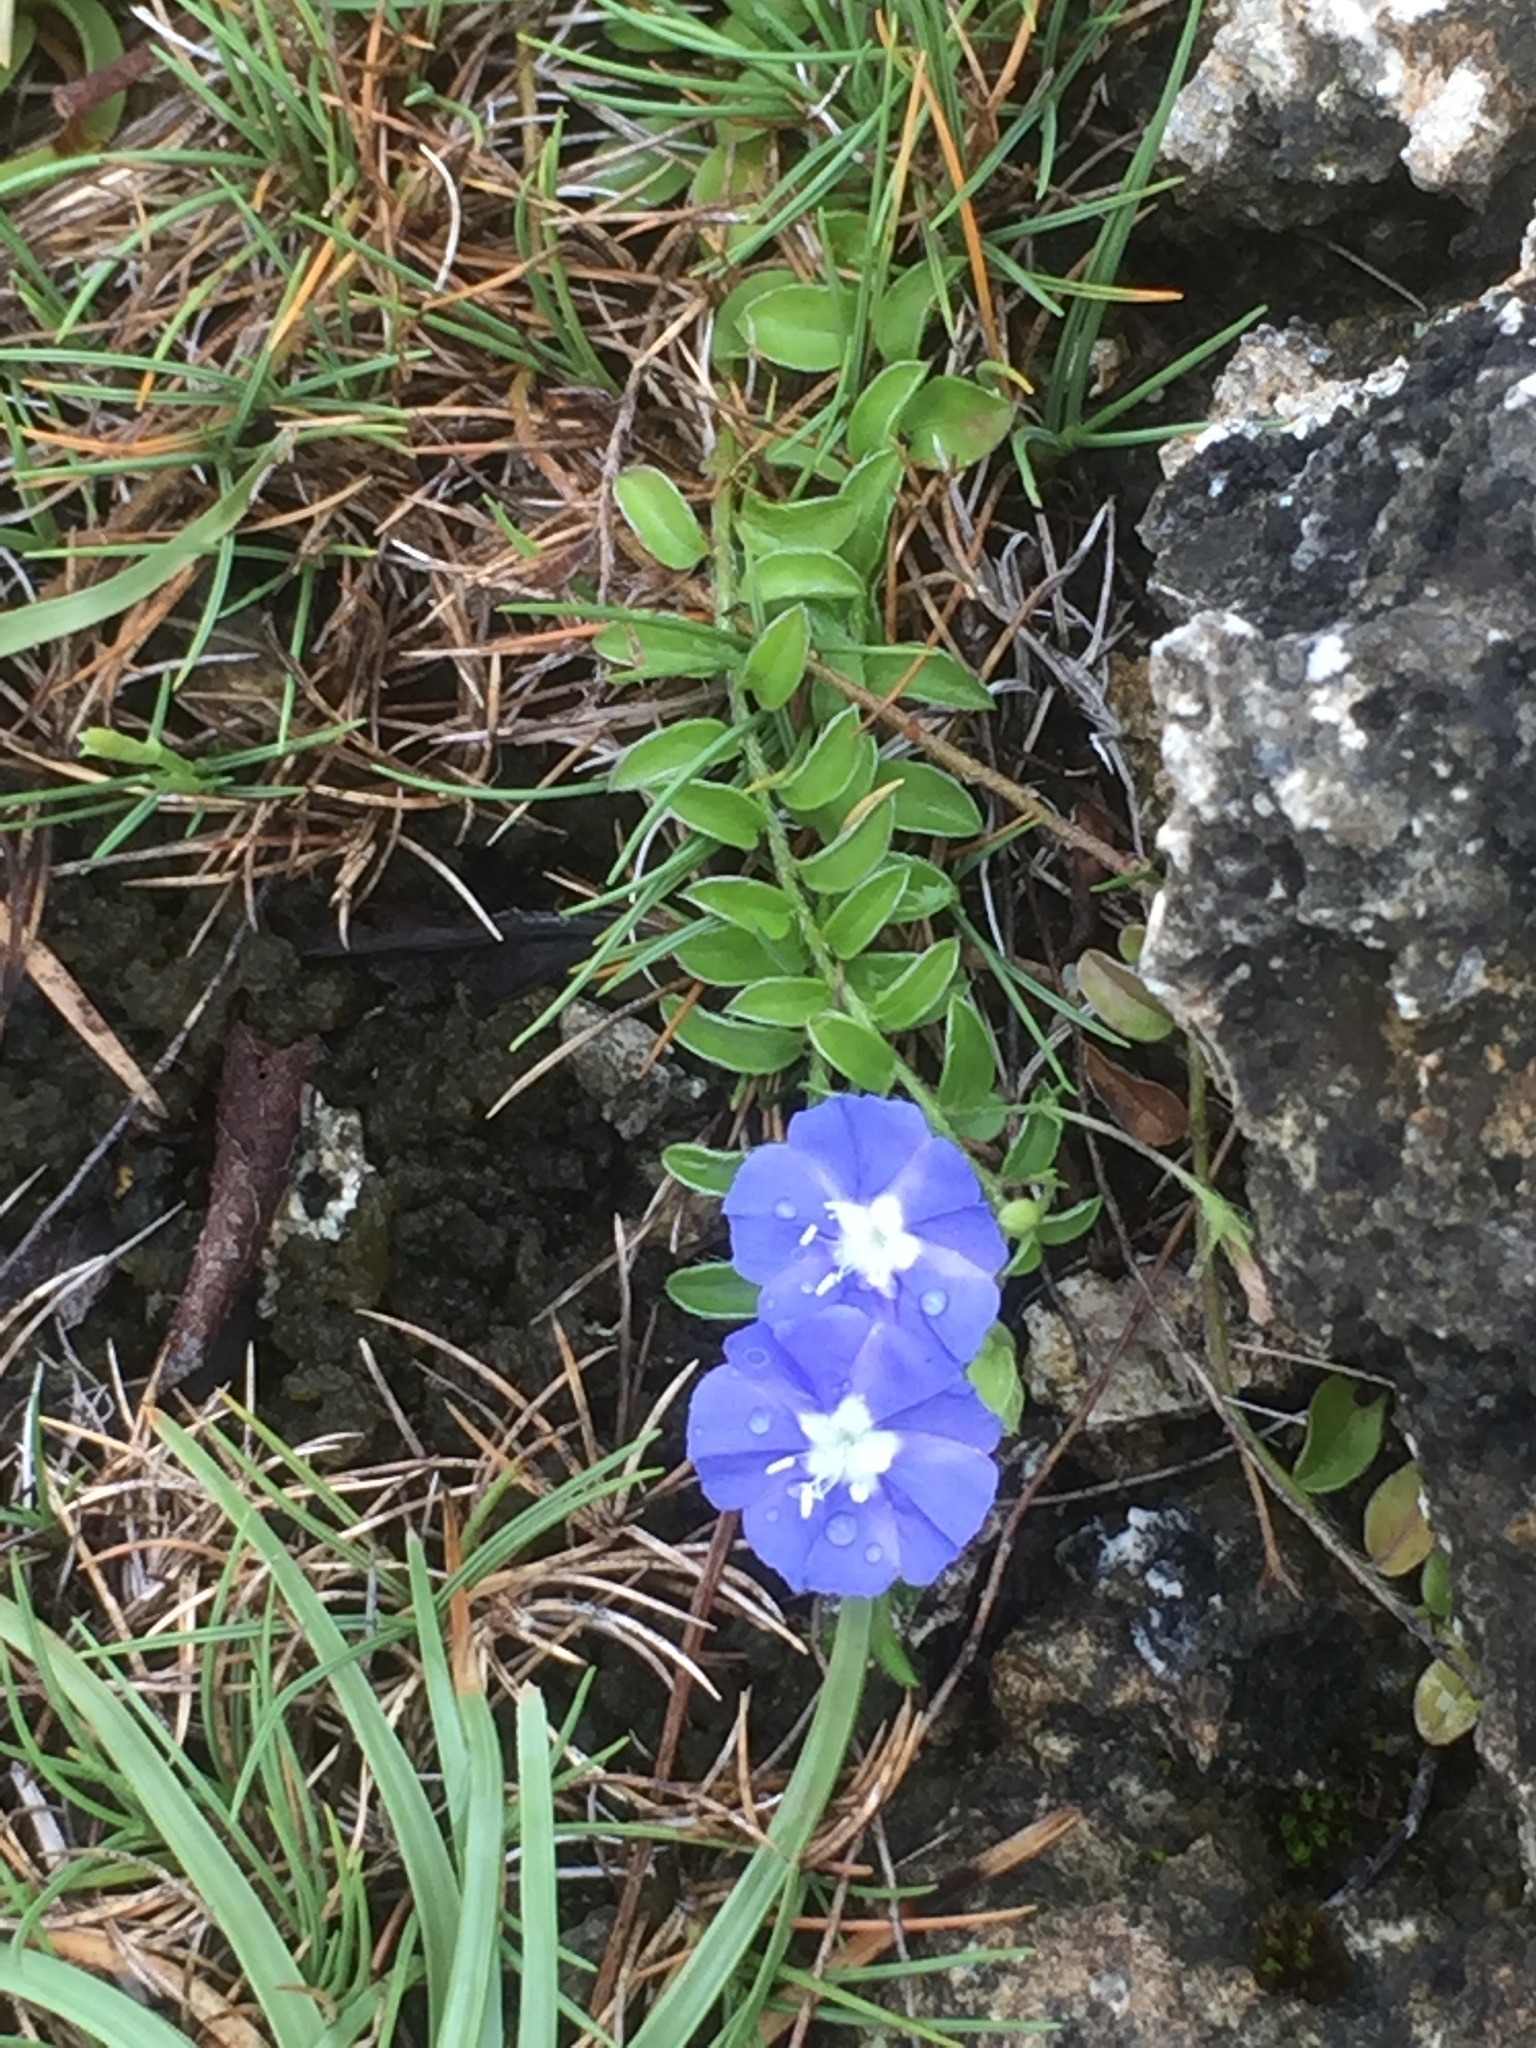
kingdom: Plantae
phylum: Tracheophyta
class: Magnoliopsida
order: Solanales
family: Convolvulaceae
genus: Evolvulus
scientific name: Evolvulus alsinoides
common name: Slender dwarf morning-glory
